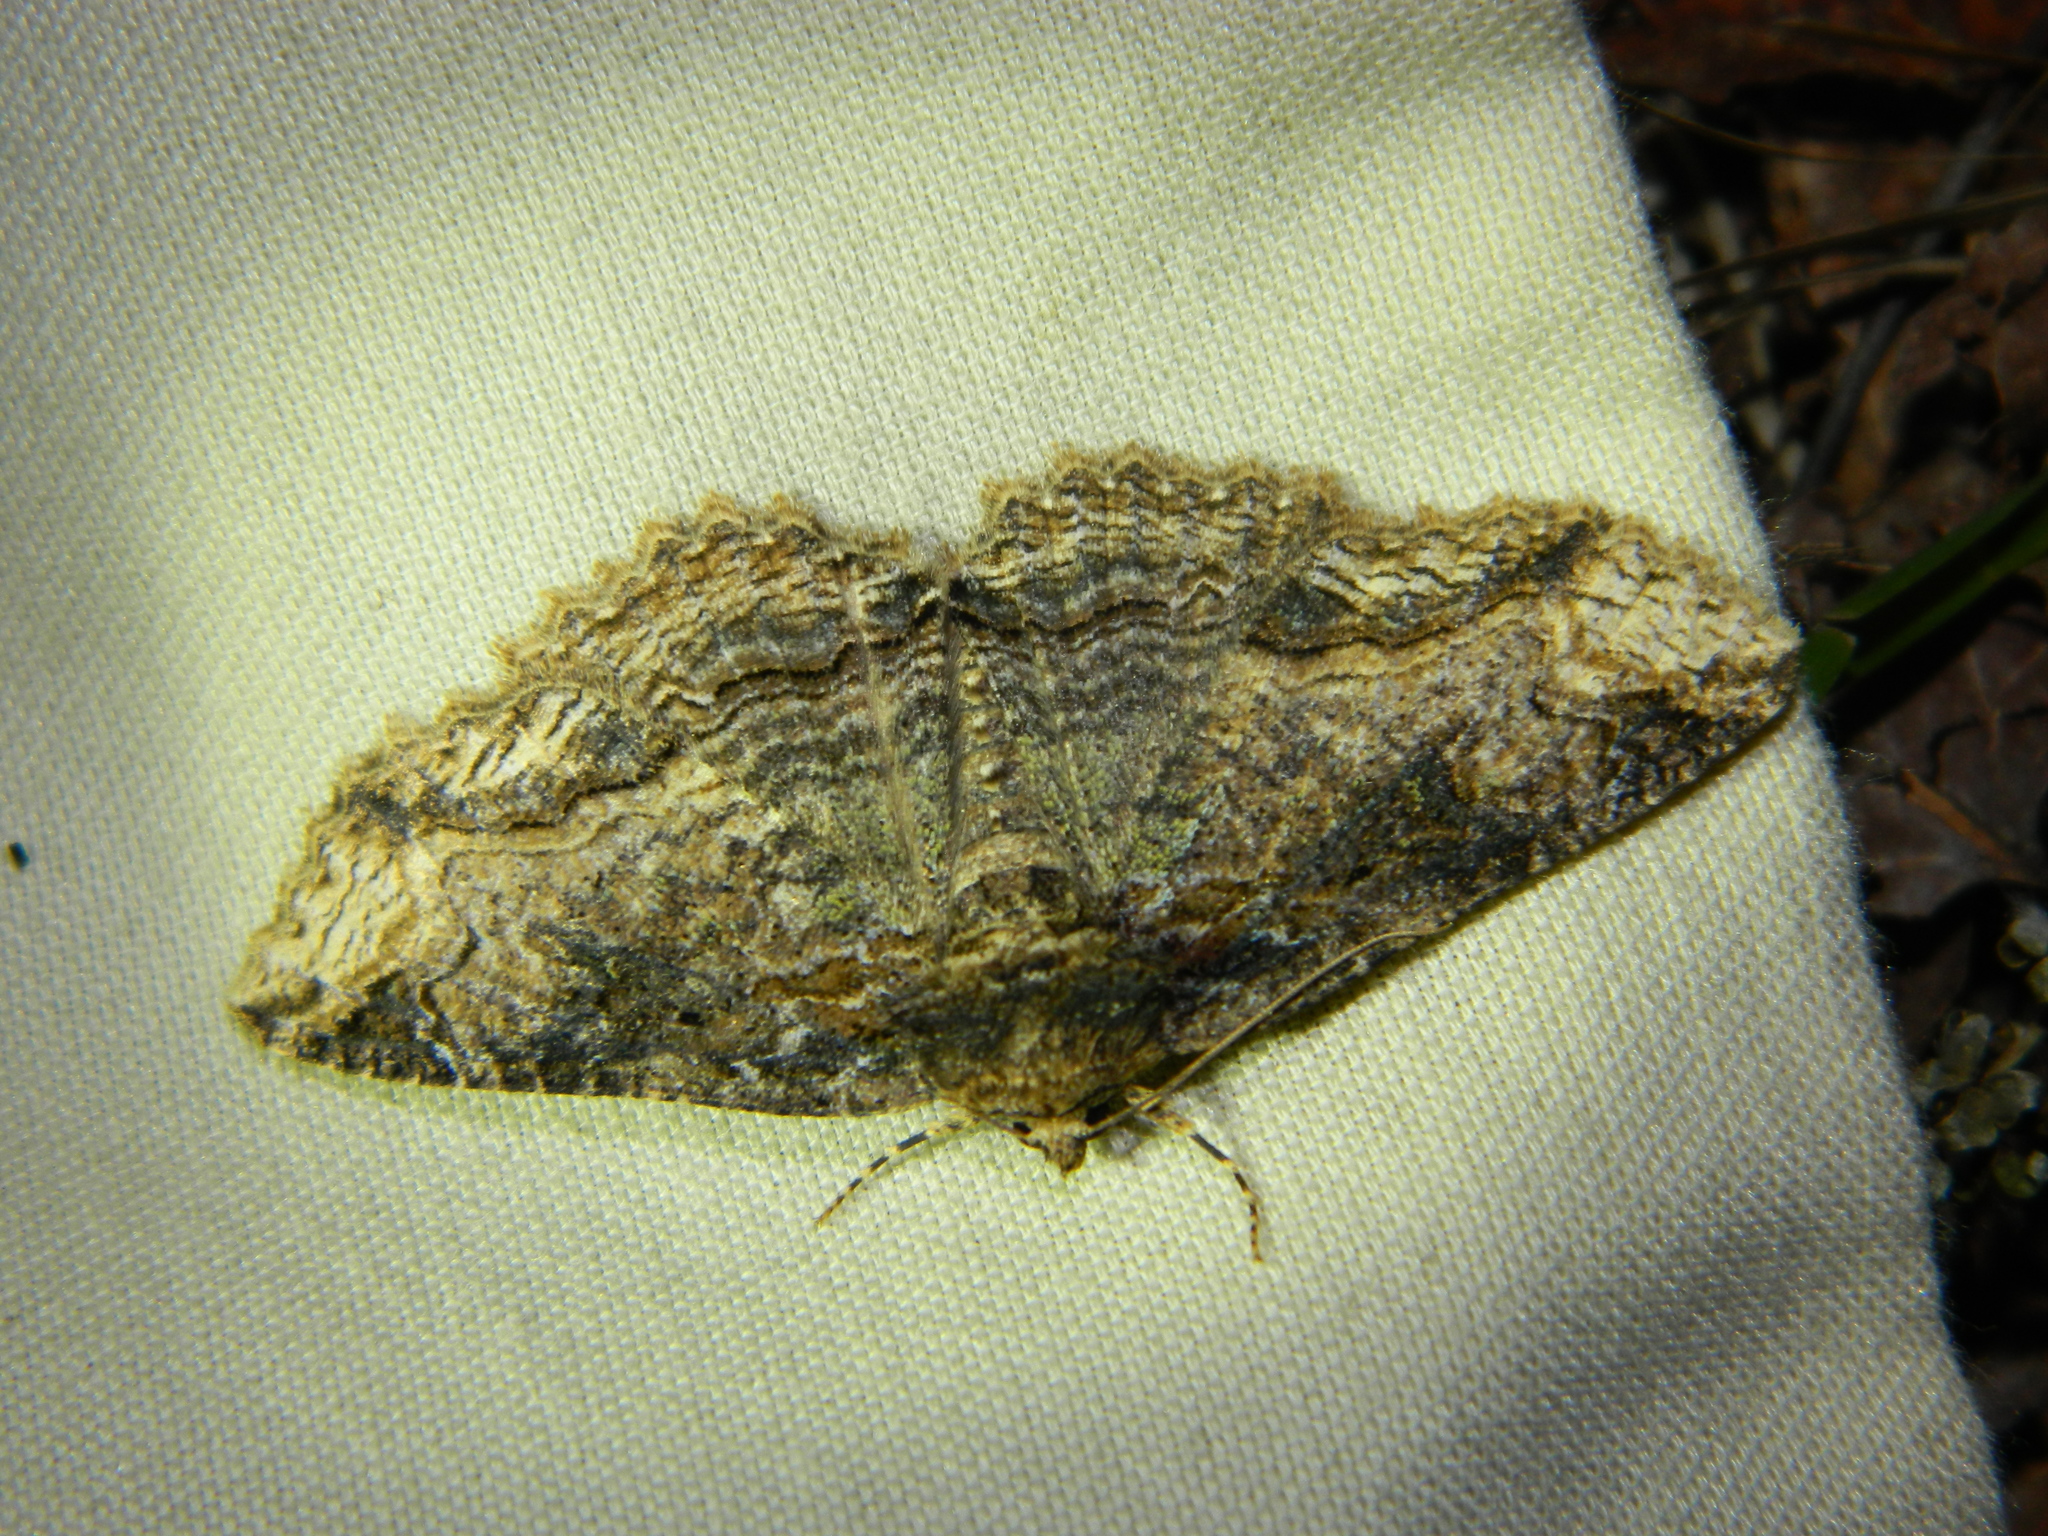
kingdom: Animalia
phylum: Arthropoda
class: Insecta
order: Lepidoptera
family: Erebidae
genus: Zale
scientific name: Zale minerea
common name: Colorful zale moth
